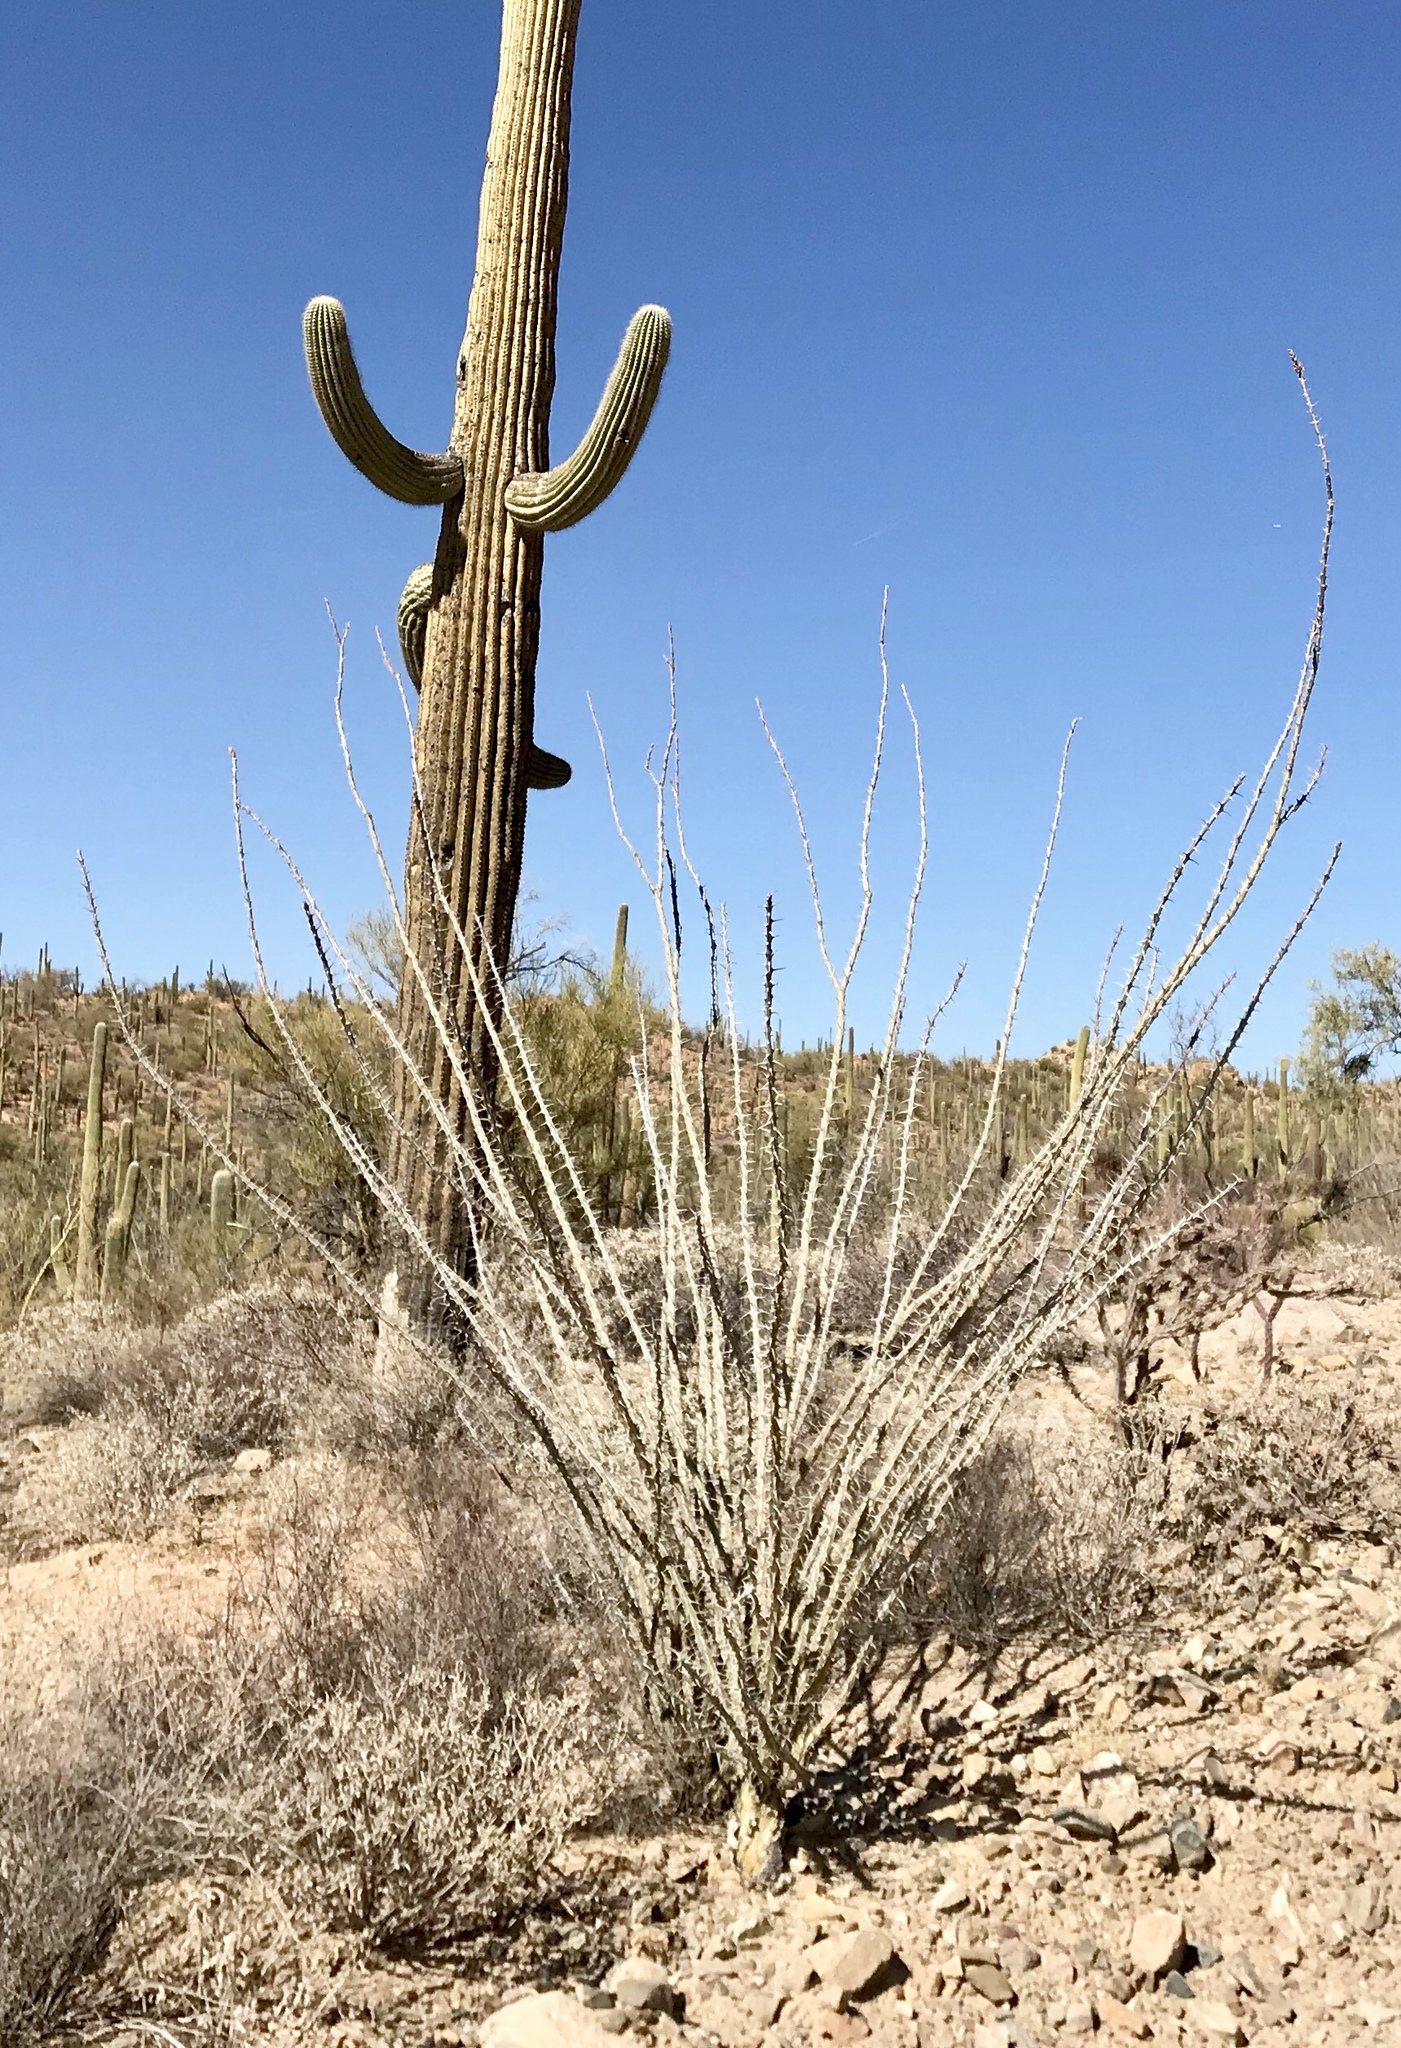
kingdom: Plantae
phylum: Tracheophyta
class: Magnoliopsida
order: Ericales
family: Fouquieriaceae
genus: Fouquieria
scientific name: Fouquieria splendens
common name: Vine-cactus
